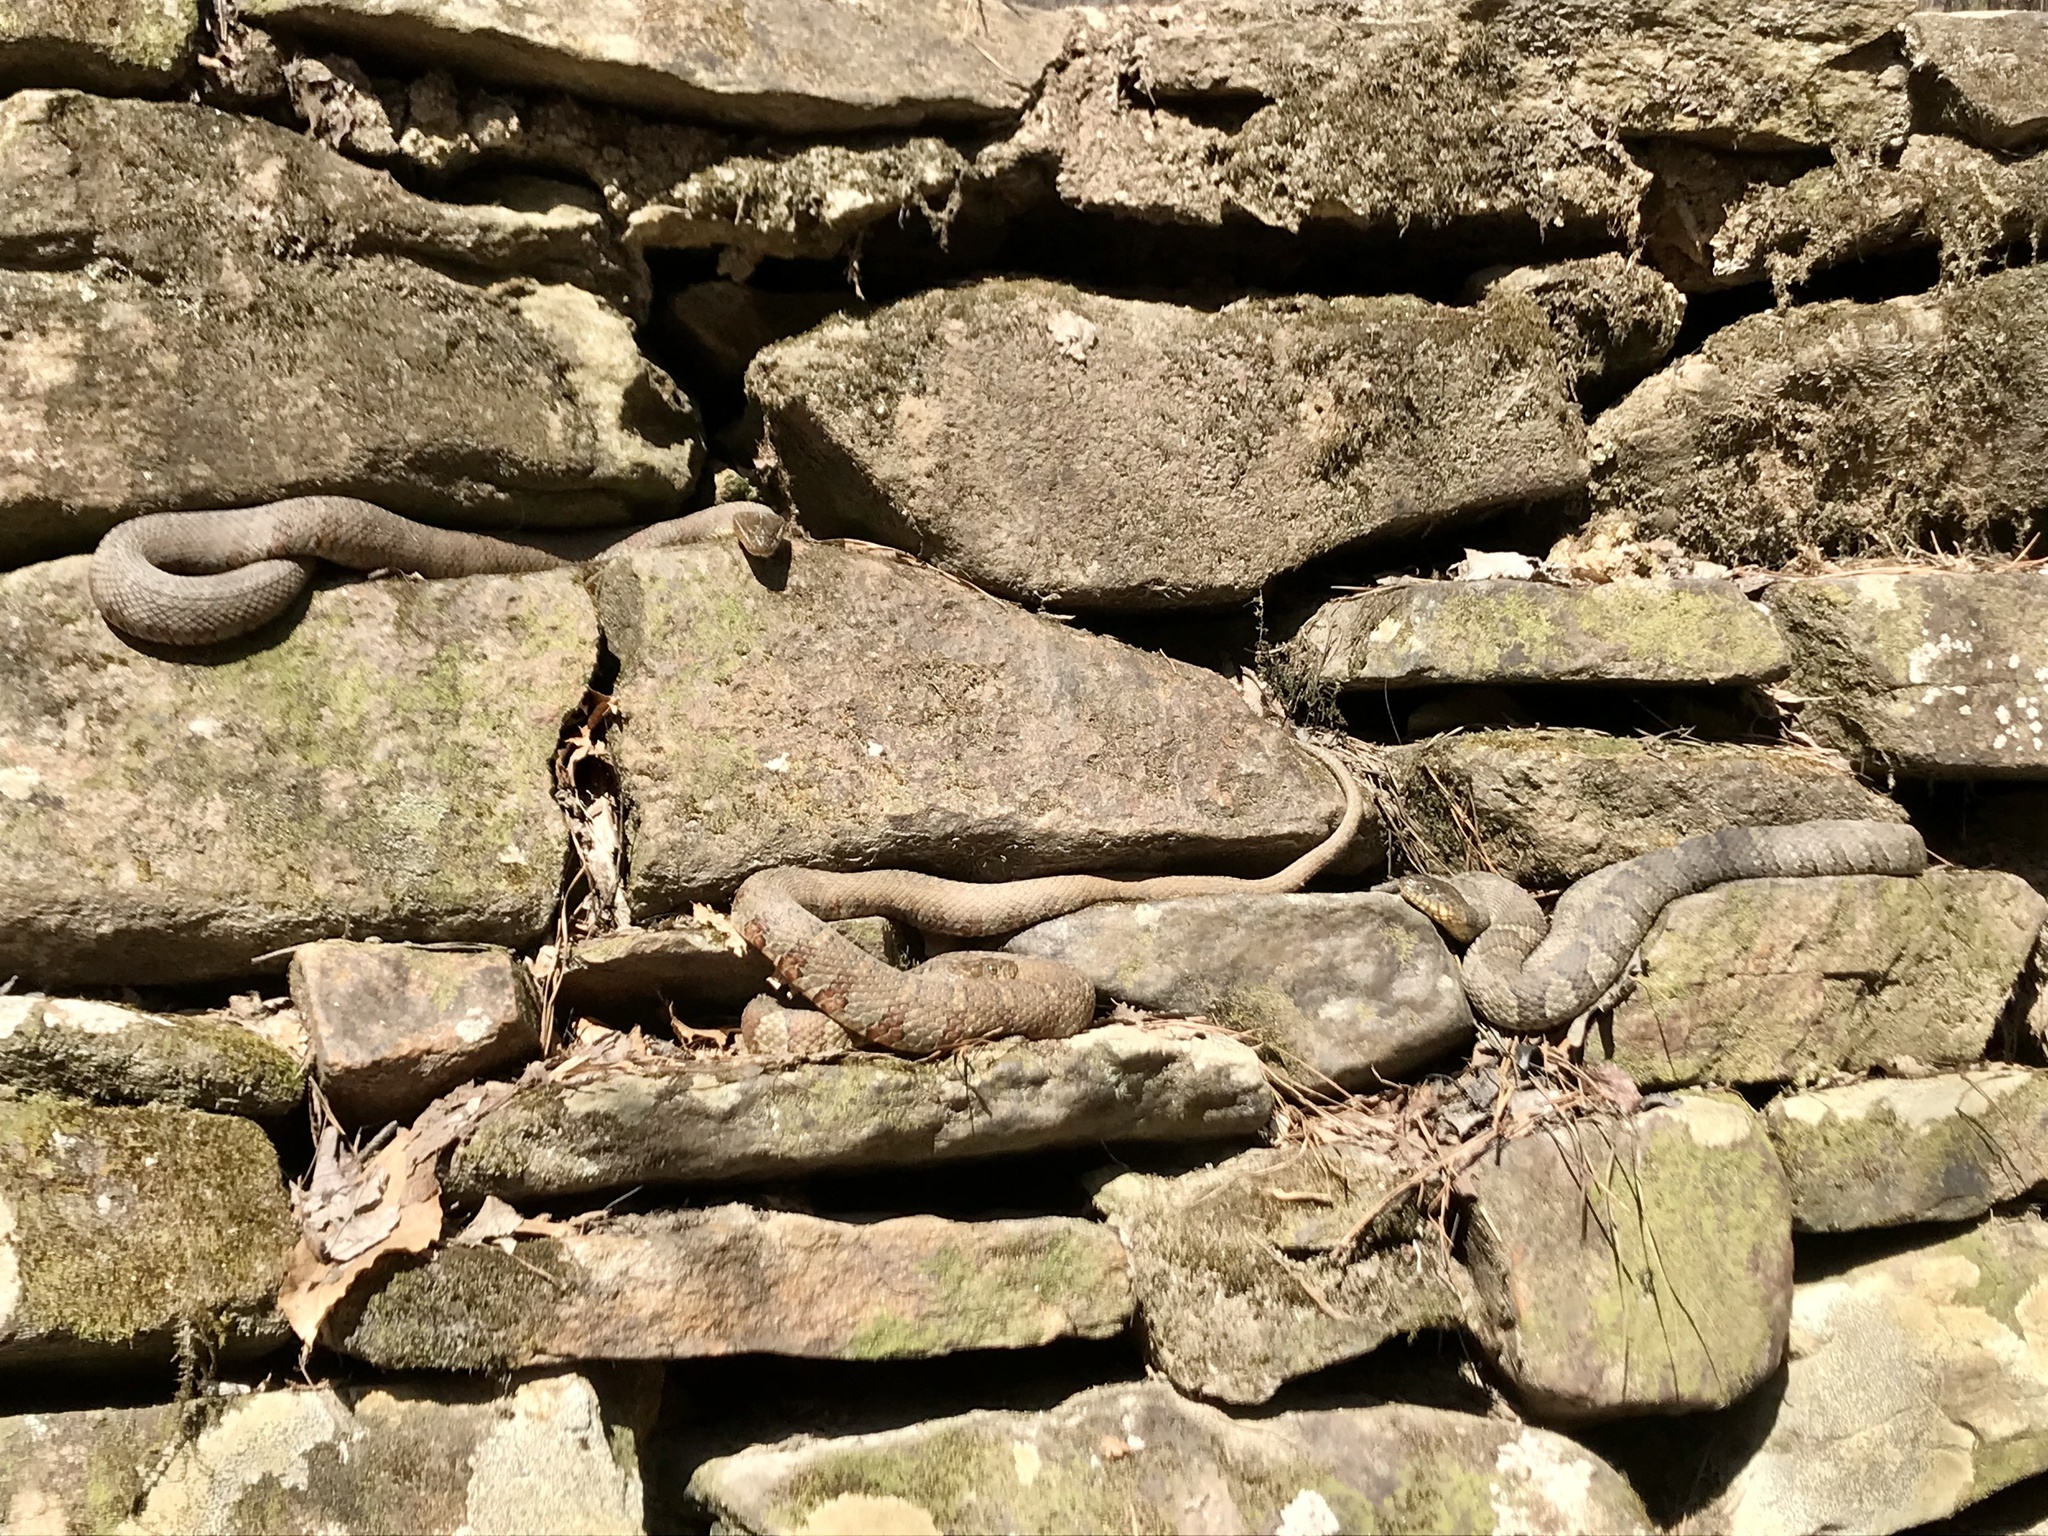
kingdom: Animalia
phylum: Chordata
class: Squamata
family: Colubridae
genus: Nerodia
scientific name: Nerodia sipedon
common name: Northern water snake
